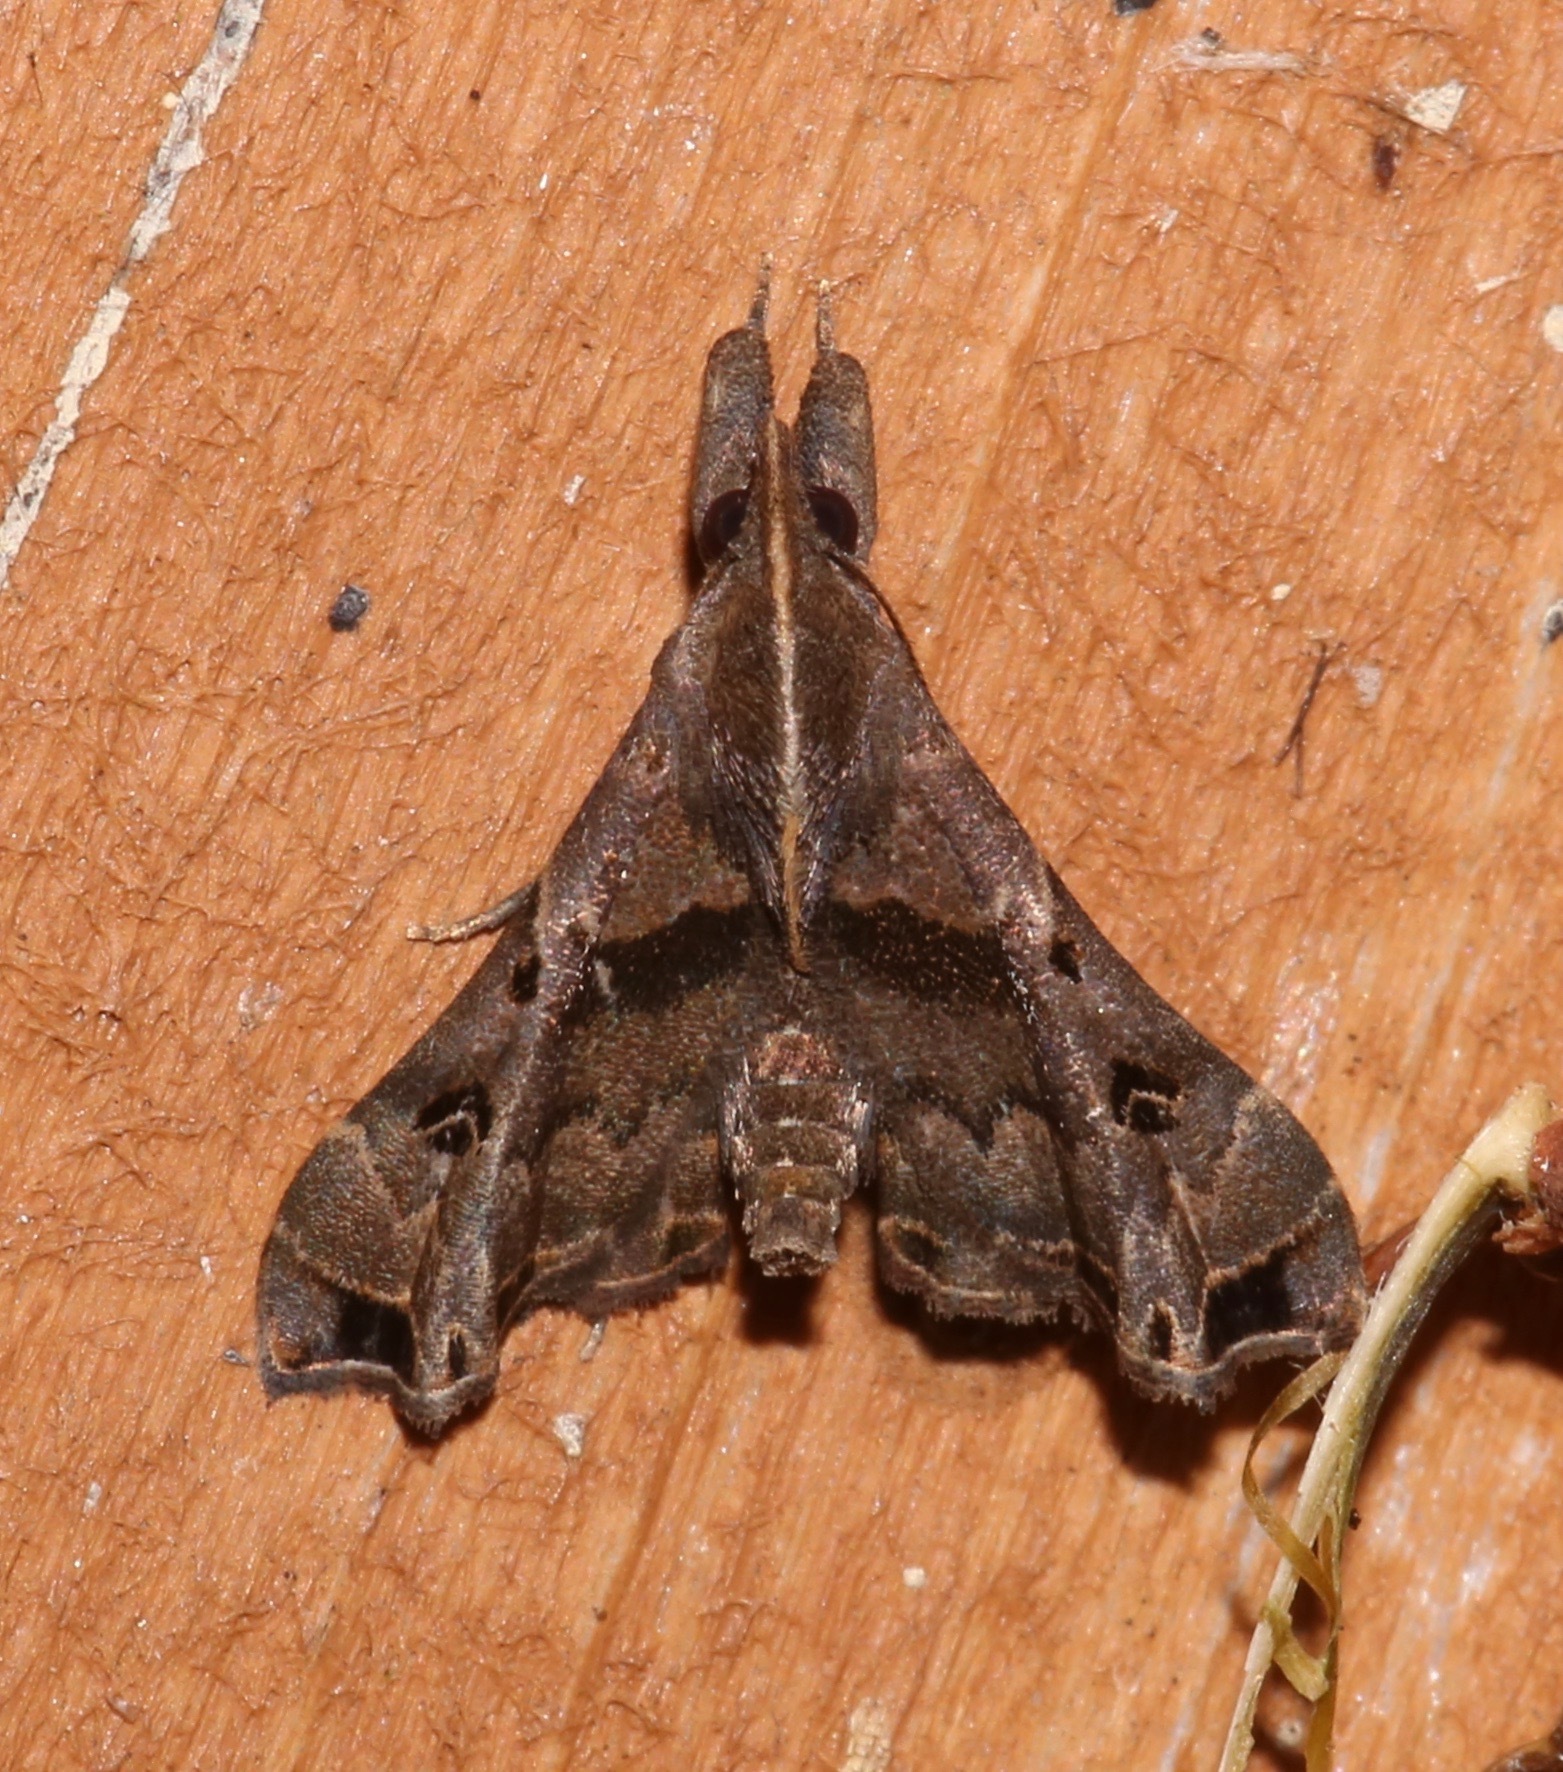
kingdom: Animalia
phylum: Arthropoda
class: Insecta
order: Lepidoptera
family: Erebidae
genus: Palthis
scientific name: Palthis asopialis
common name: Faint-spotted palthis moth
